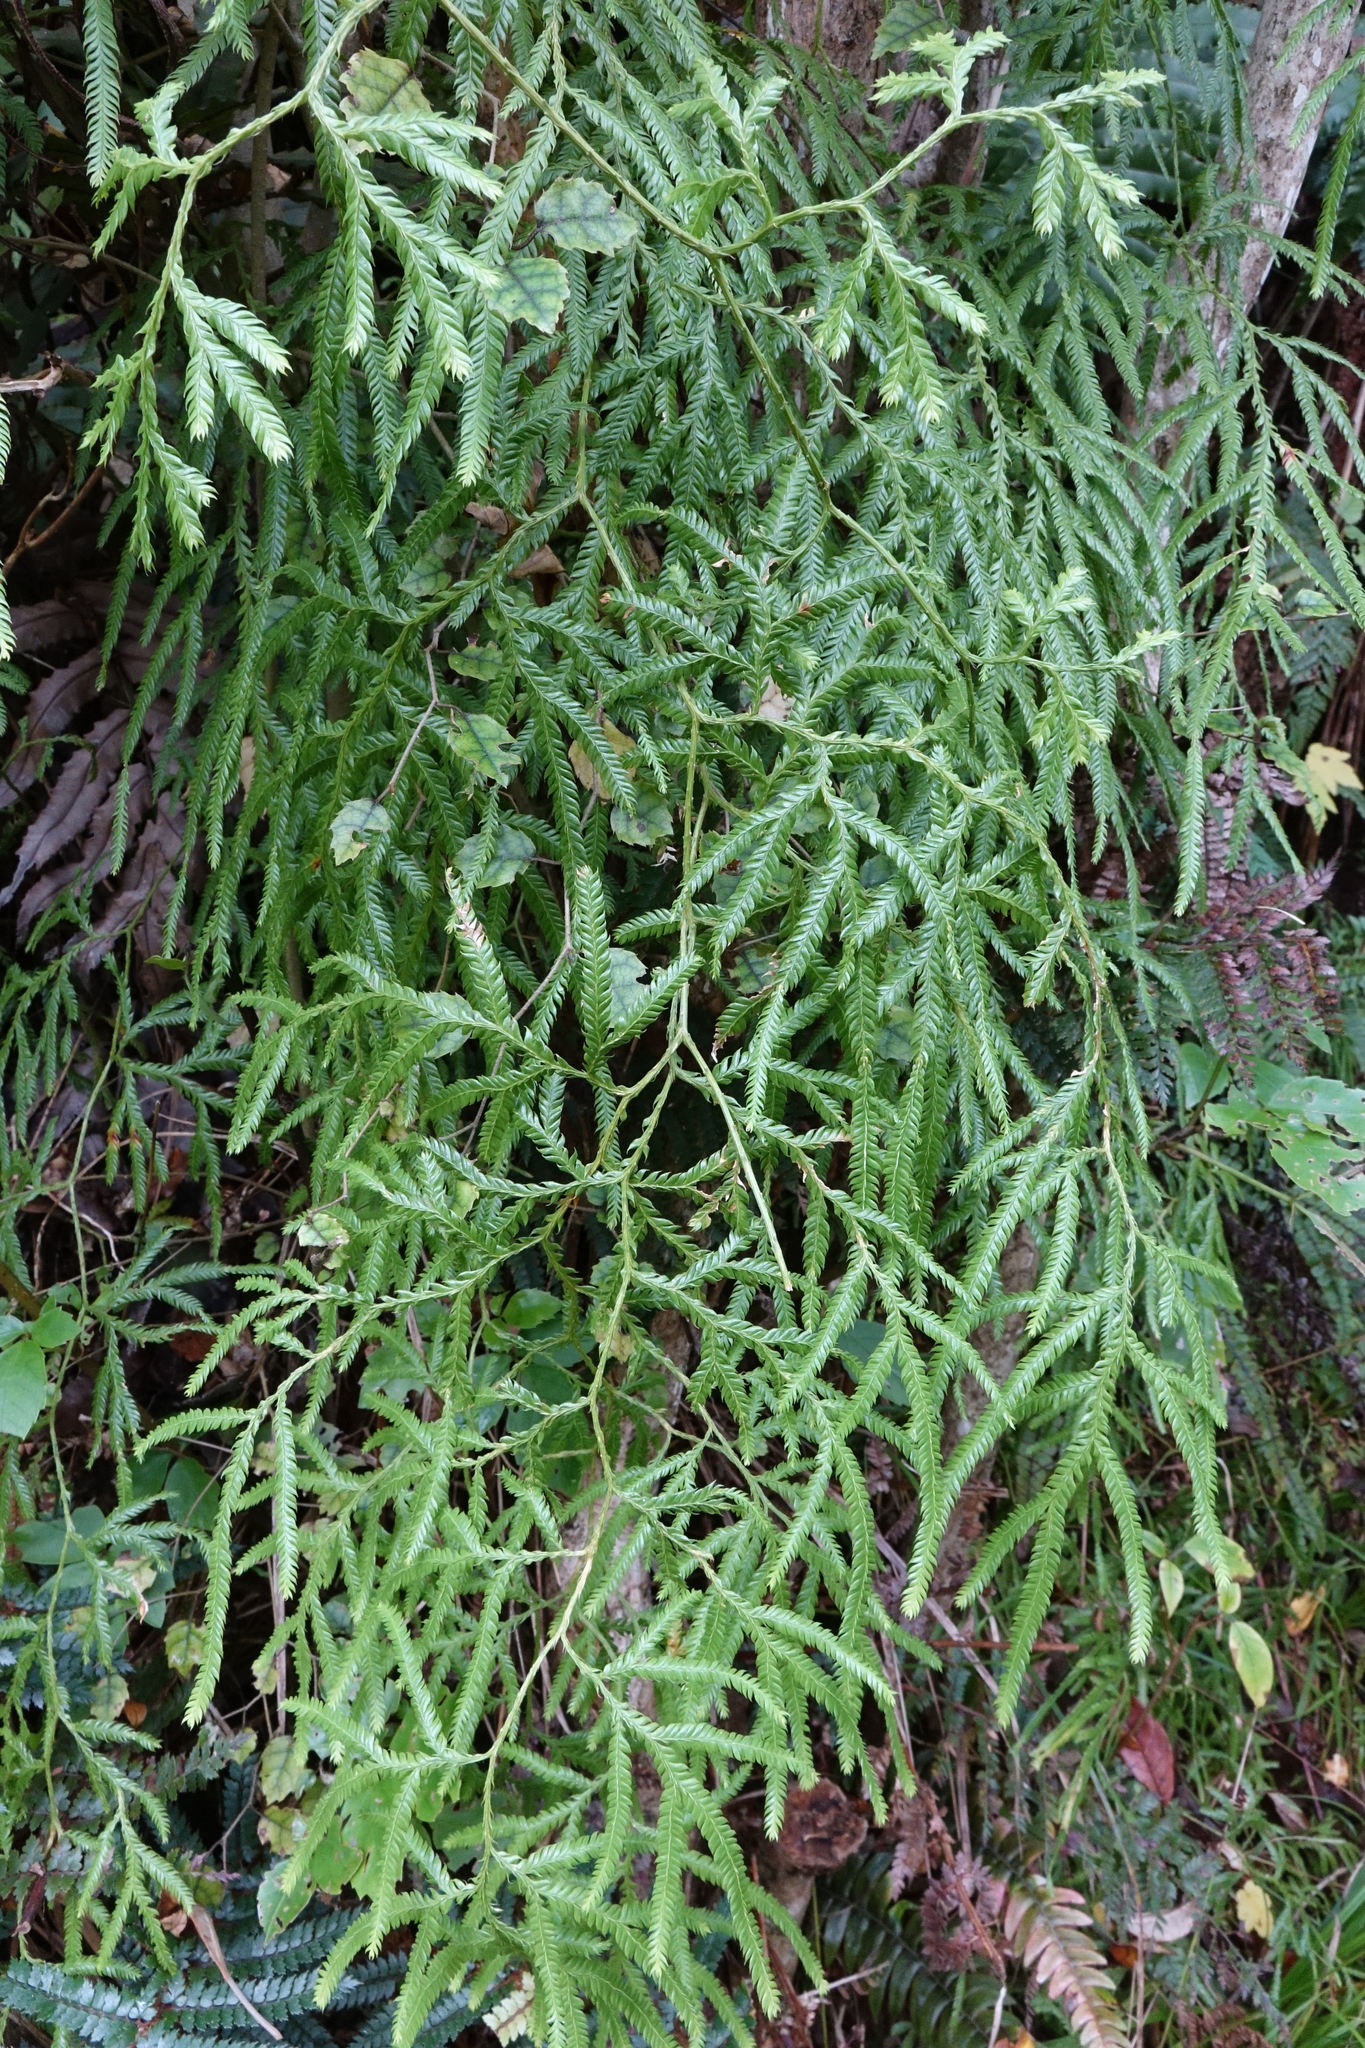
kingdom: Plantae
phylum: Tracheophyta
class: Lycopodiopsida
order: Lycopodiales
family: Lycopodiaceae
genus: Lycopodium
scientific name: Lycopodium volubile
